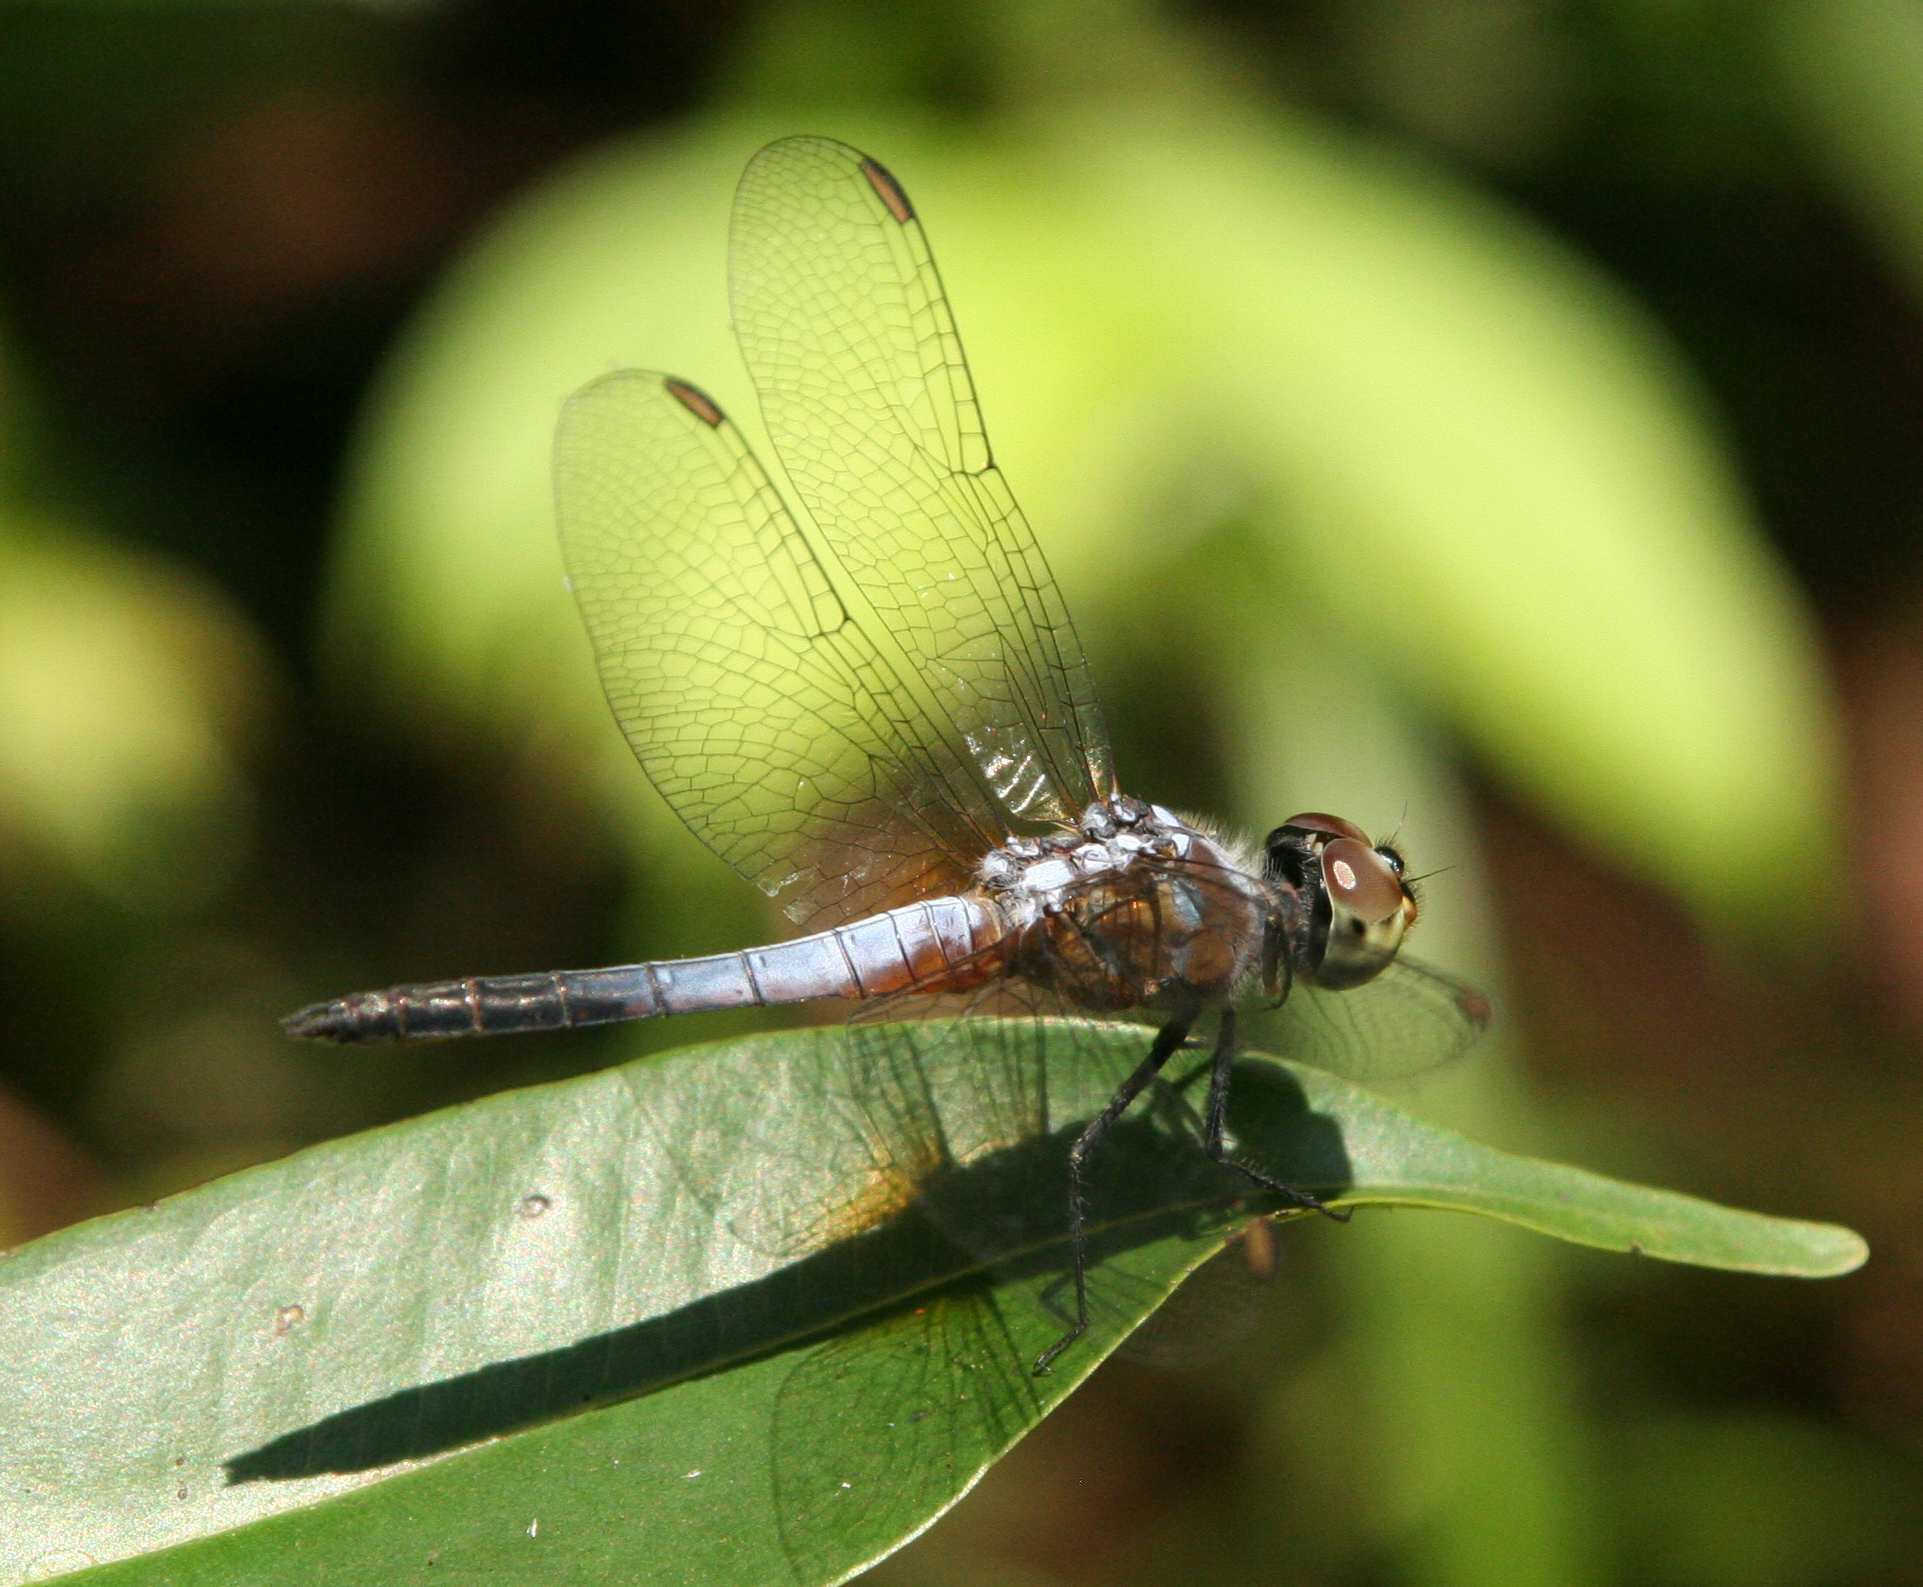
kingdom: Animalia
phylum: Arthropoda
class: Insecta
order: Odonata
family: Libellulidae
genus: Brachydiplax
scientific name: Brachydiplax chalybea
